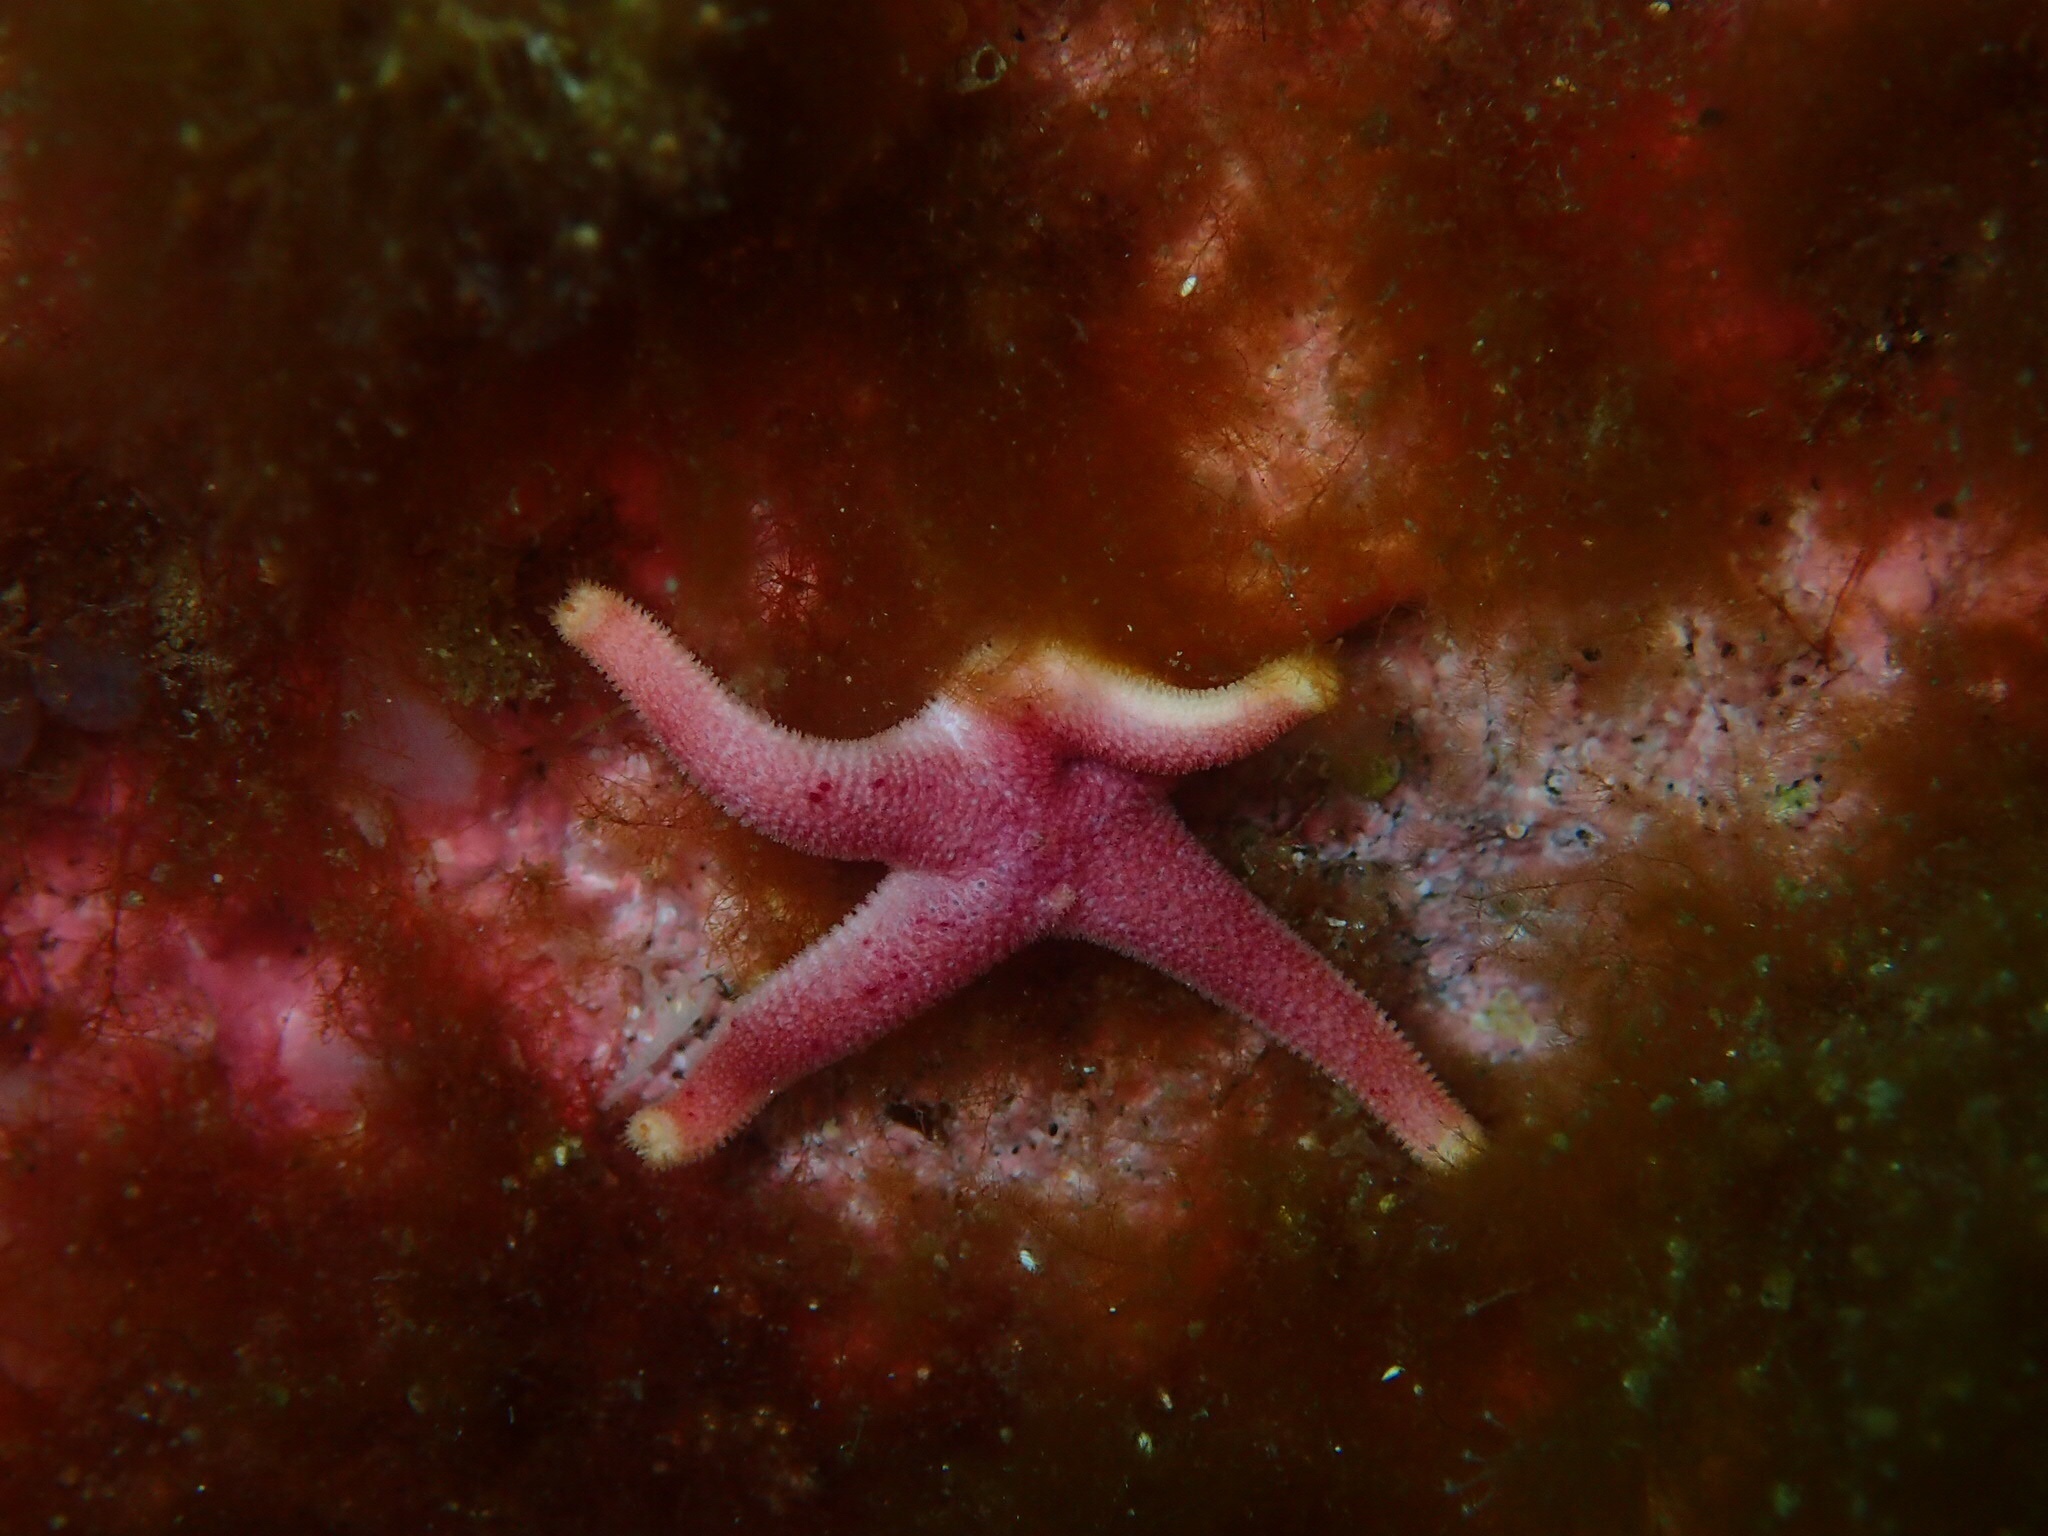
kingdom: Animalia
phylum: Echinodermata
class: Asteroidea
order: Spinulosida
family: Echinasteridae
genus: Henricia
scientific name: Henricia sanguinolenta
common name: Blood star
